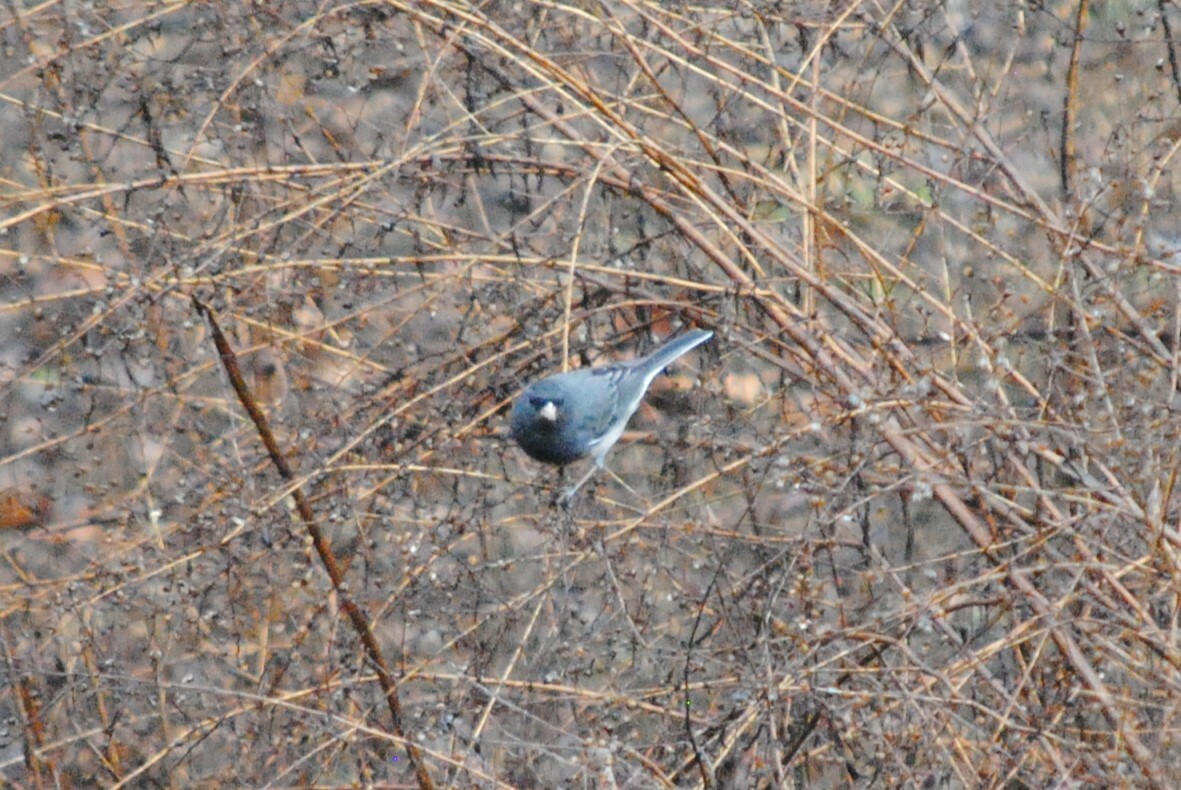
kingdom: Animalia
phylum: Chordata
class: Aves
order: Passeriformes
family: Passerellidae
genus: Junco
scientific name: Junco hyemalis
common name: Dark-eyed junco
